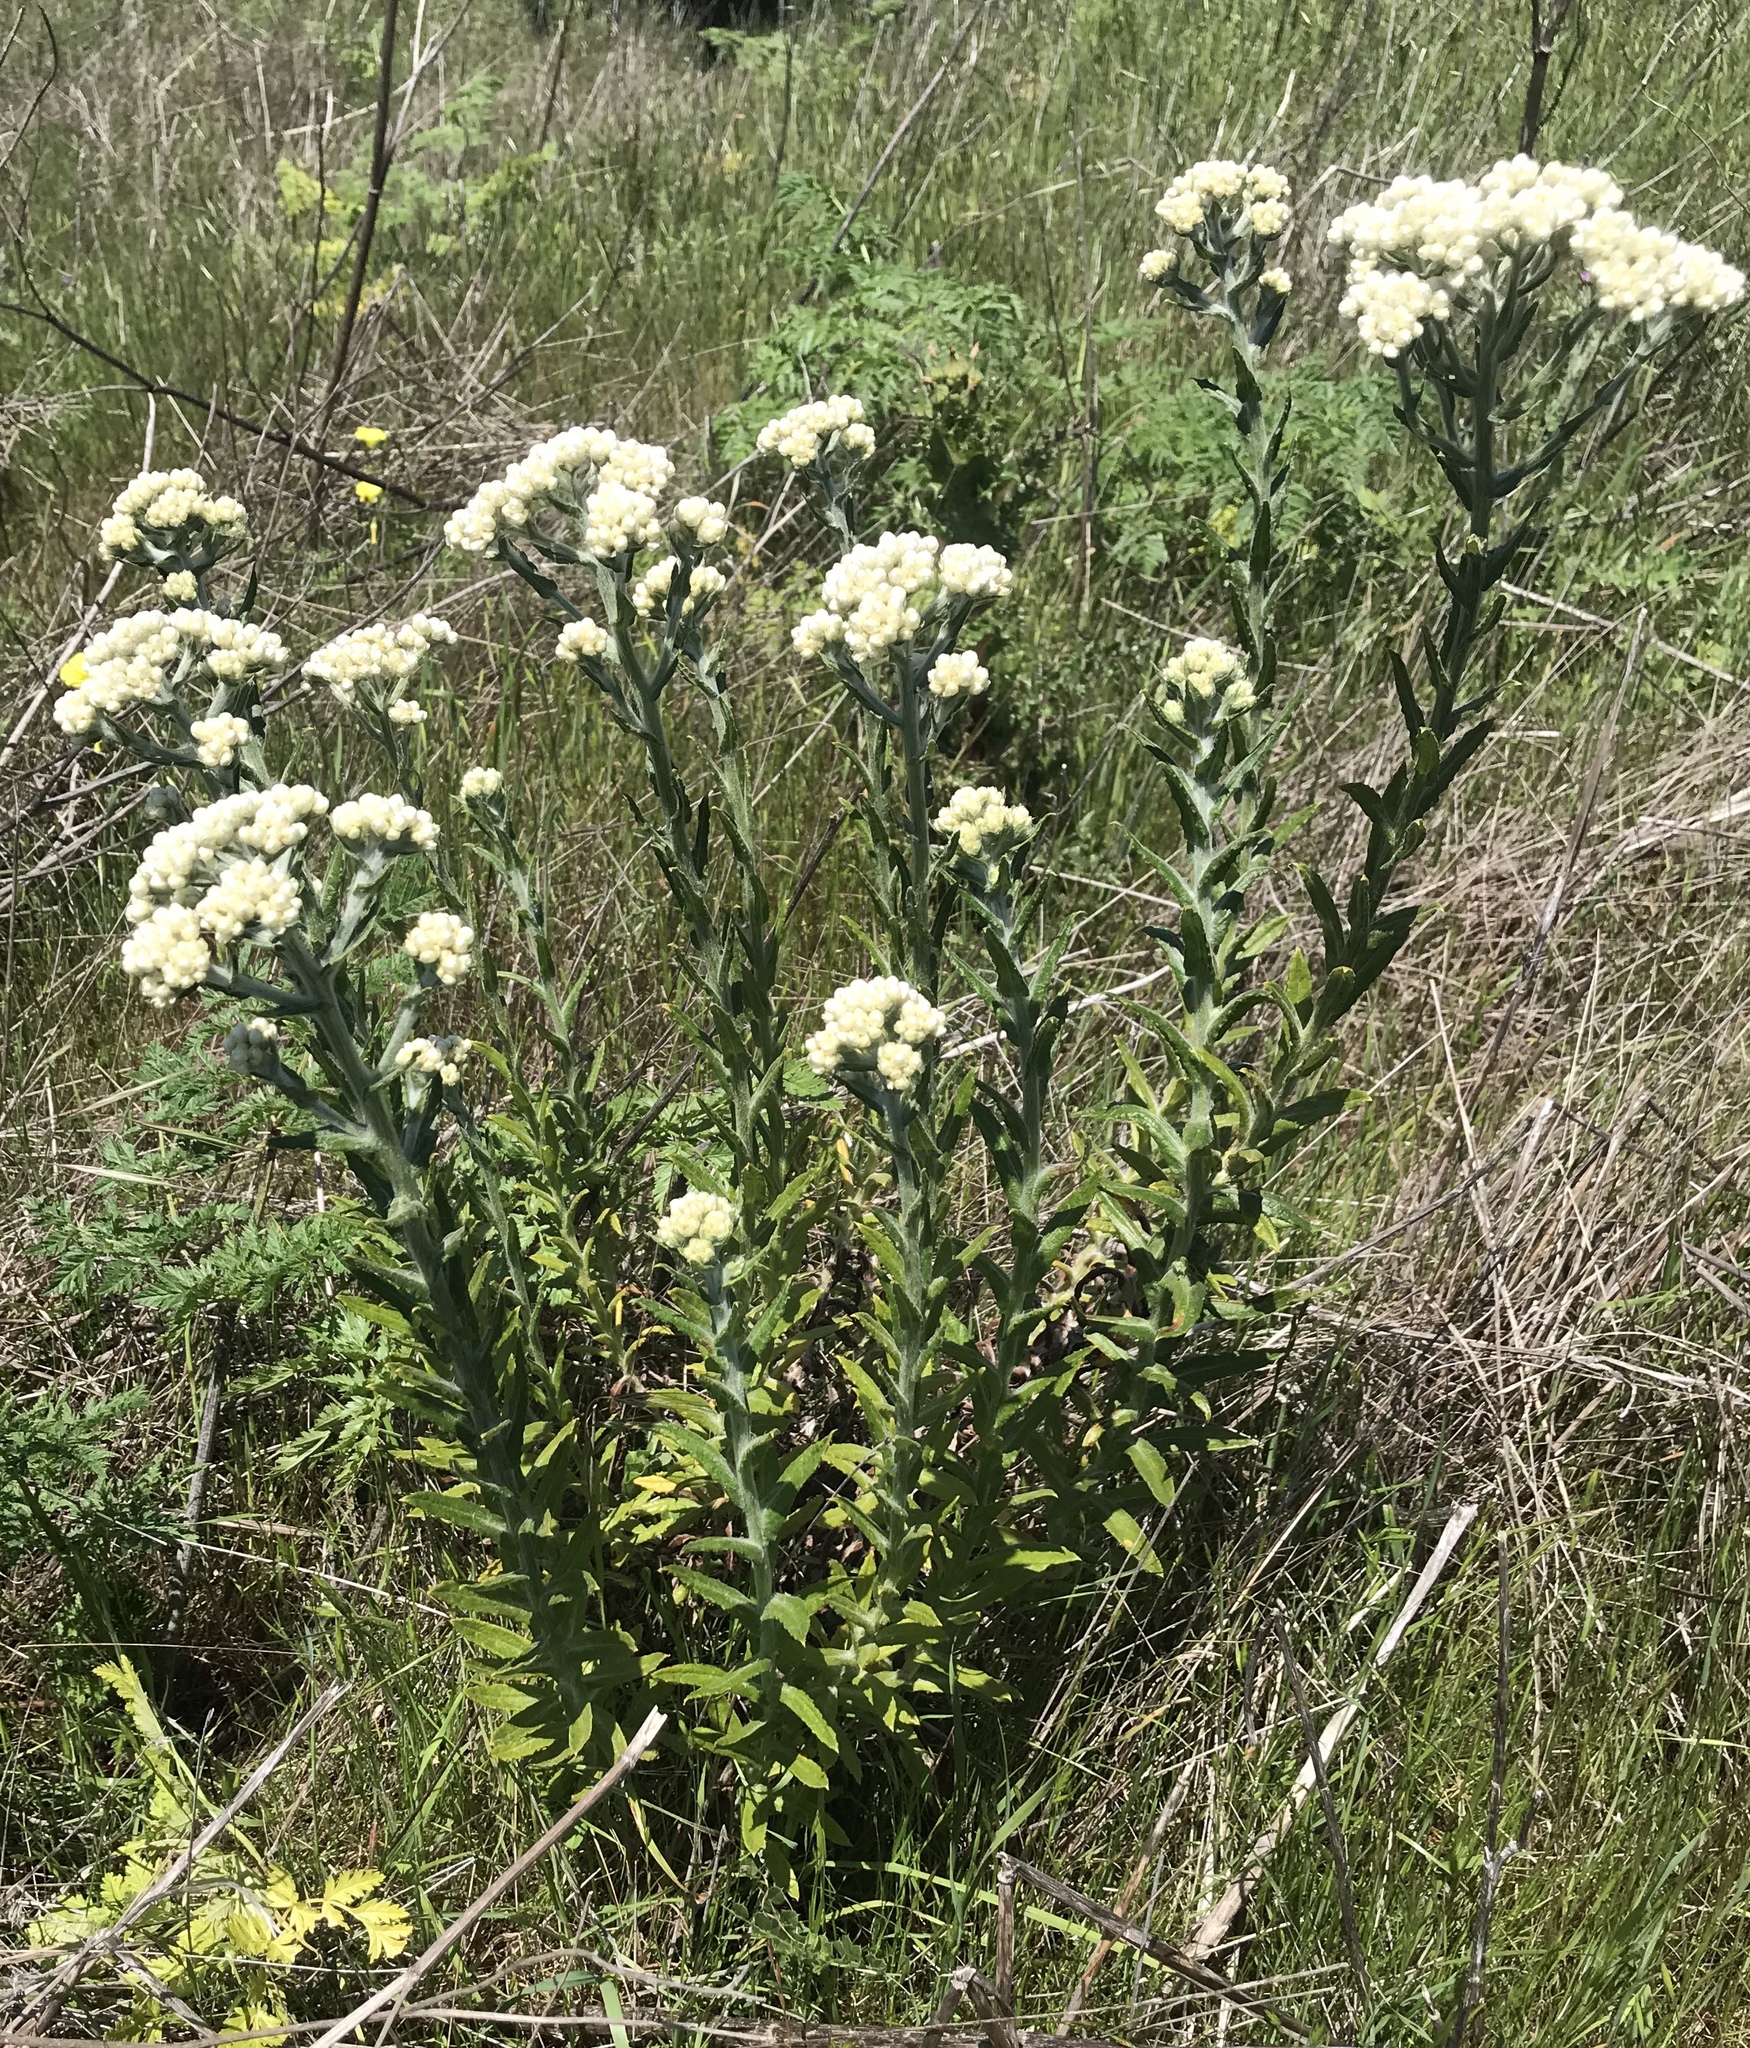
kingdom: Plantae
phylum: Tracheophyta
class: Magnoliopsida
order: Asterales
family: Asteraceae
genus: Pseudognaphalium
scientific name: Pseudognaphalium californicum
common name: California rabbit-tobacco
